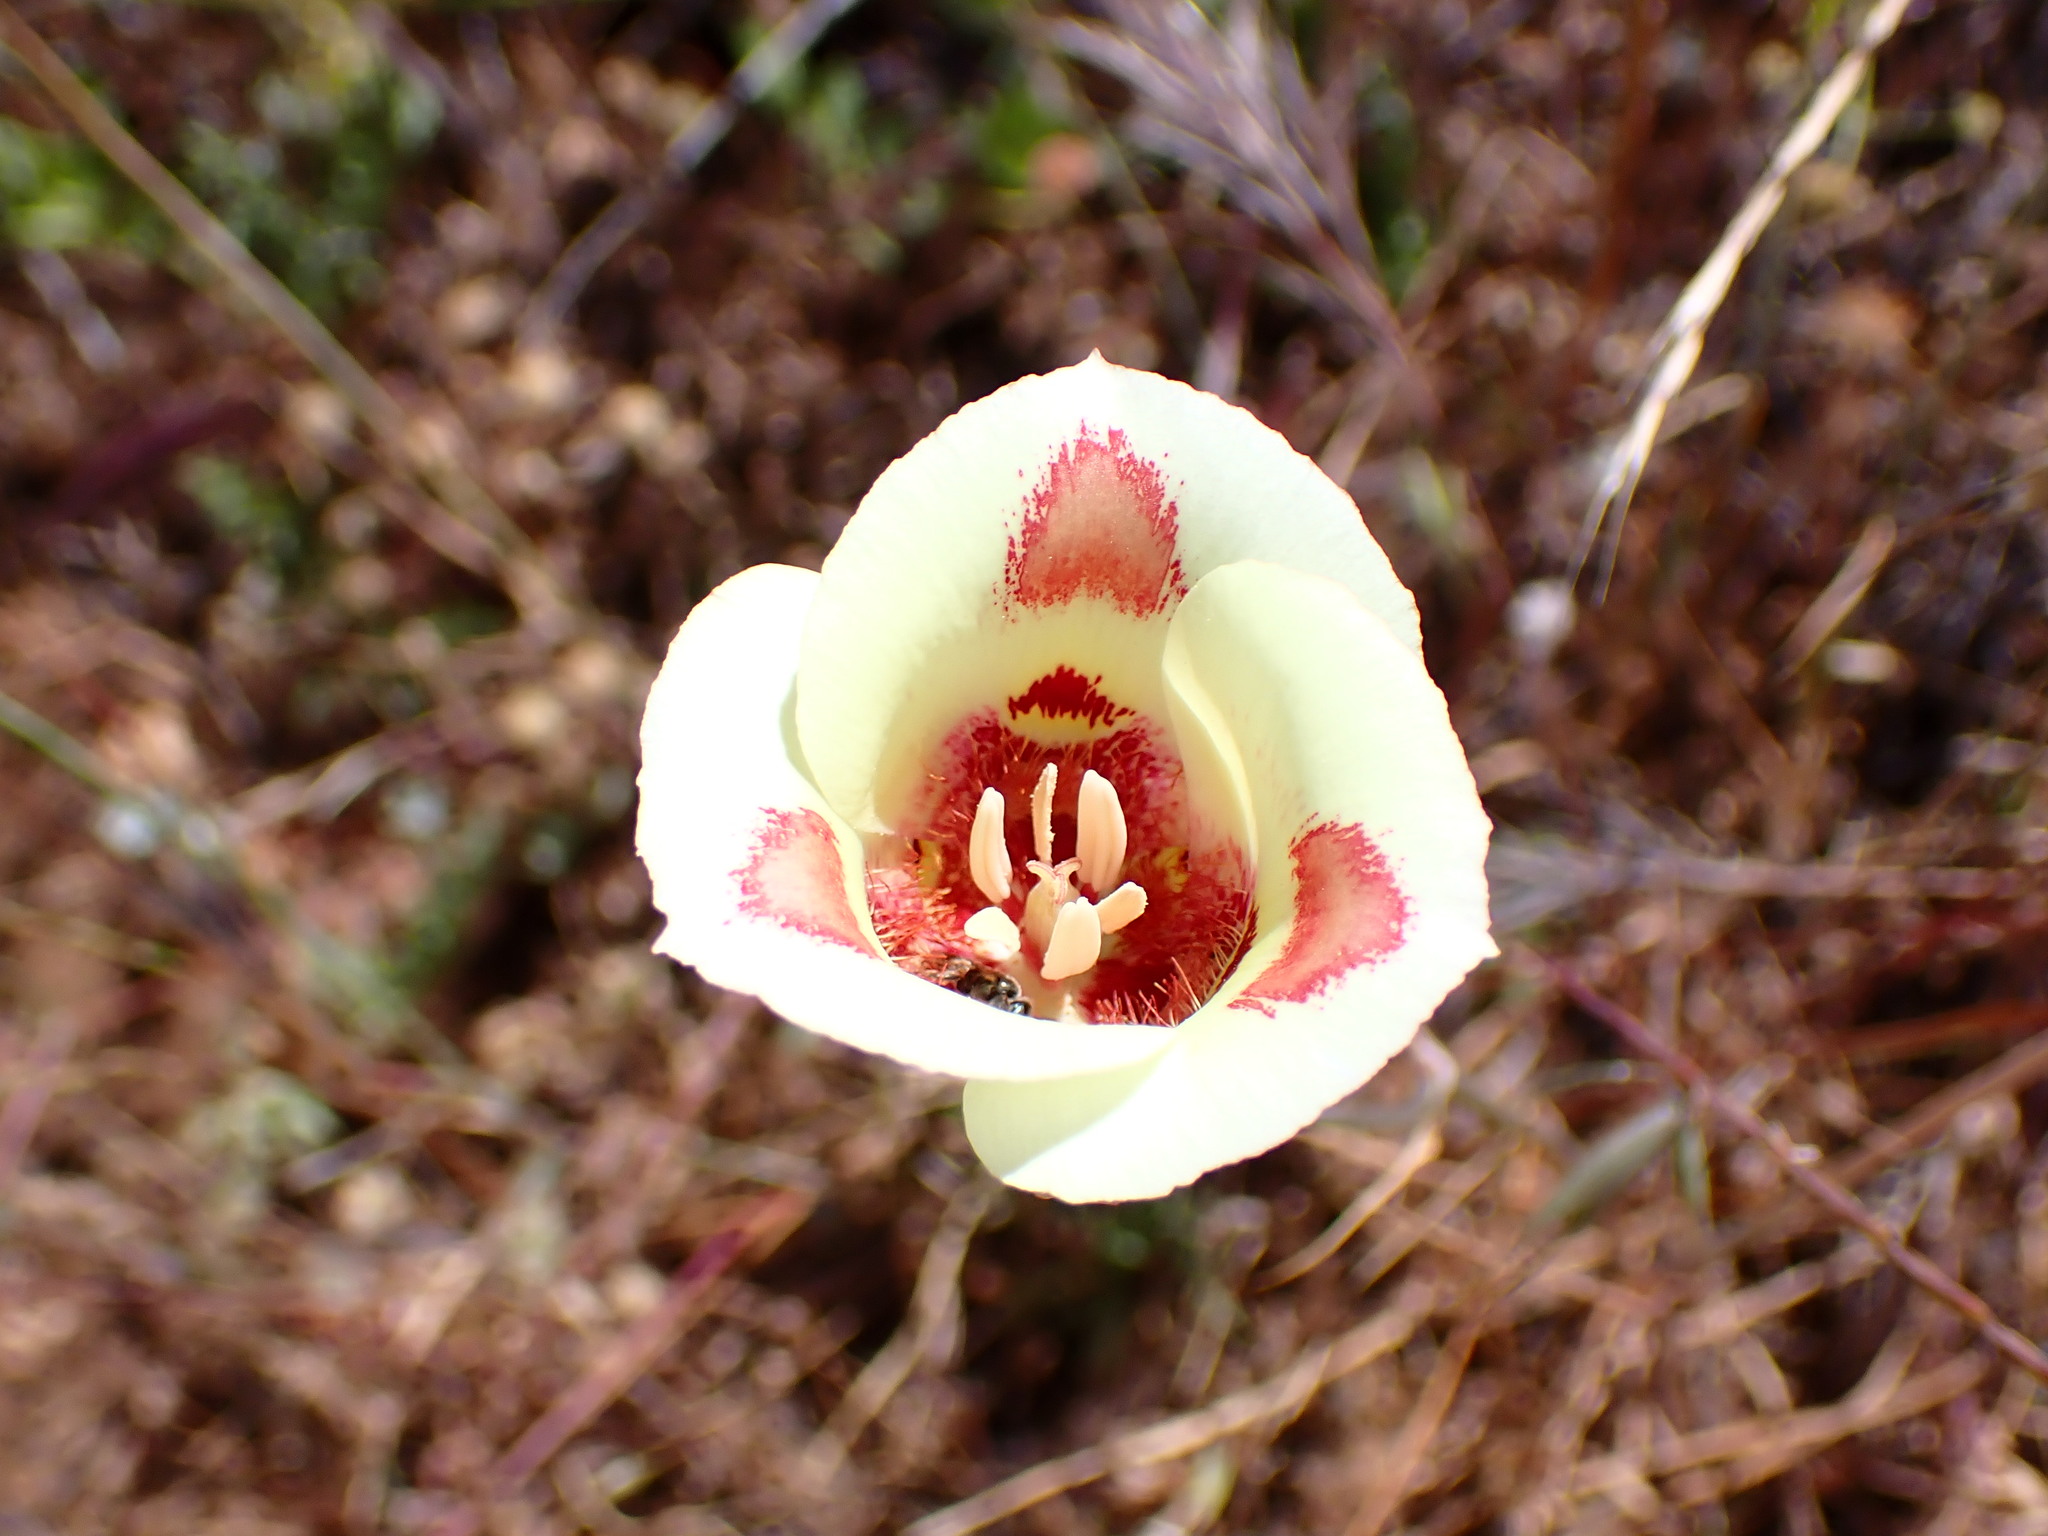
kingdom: Plantae
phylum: Tracheophyta
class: Liliopsida
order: Liliales
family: Liliaceae
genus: Calochortus
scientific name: Calochortus venustus
